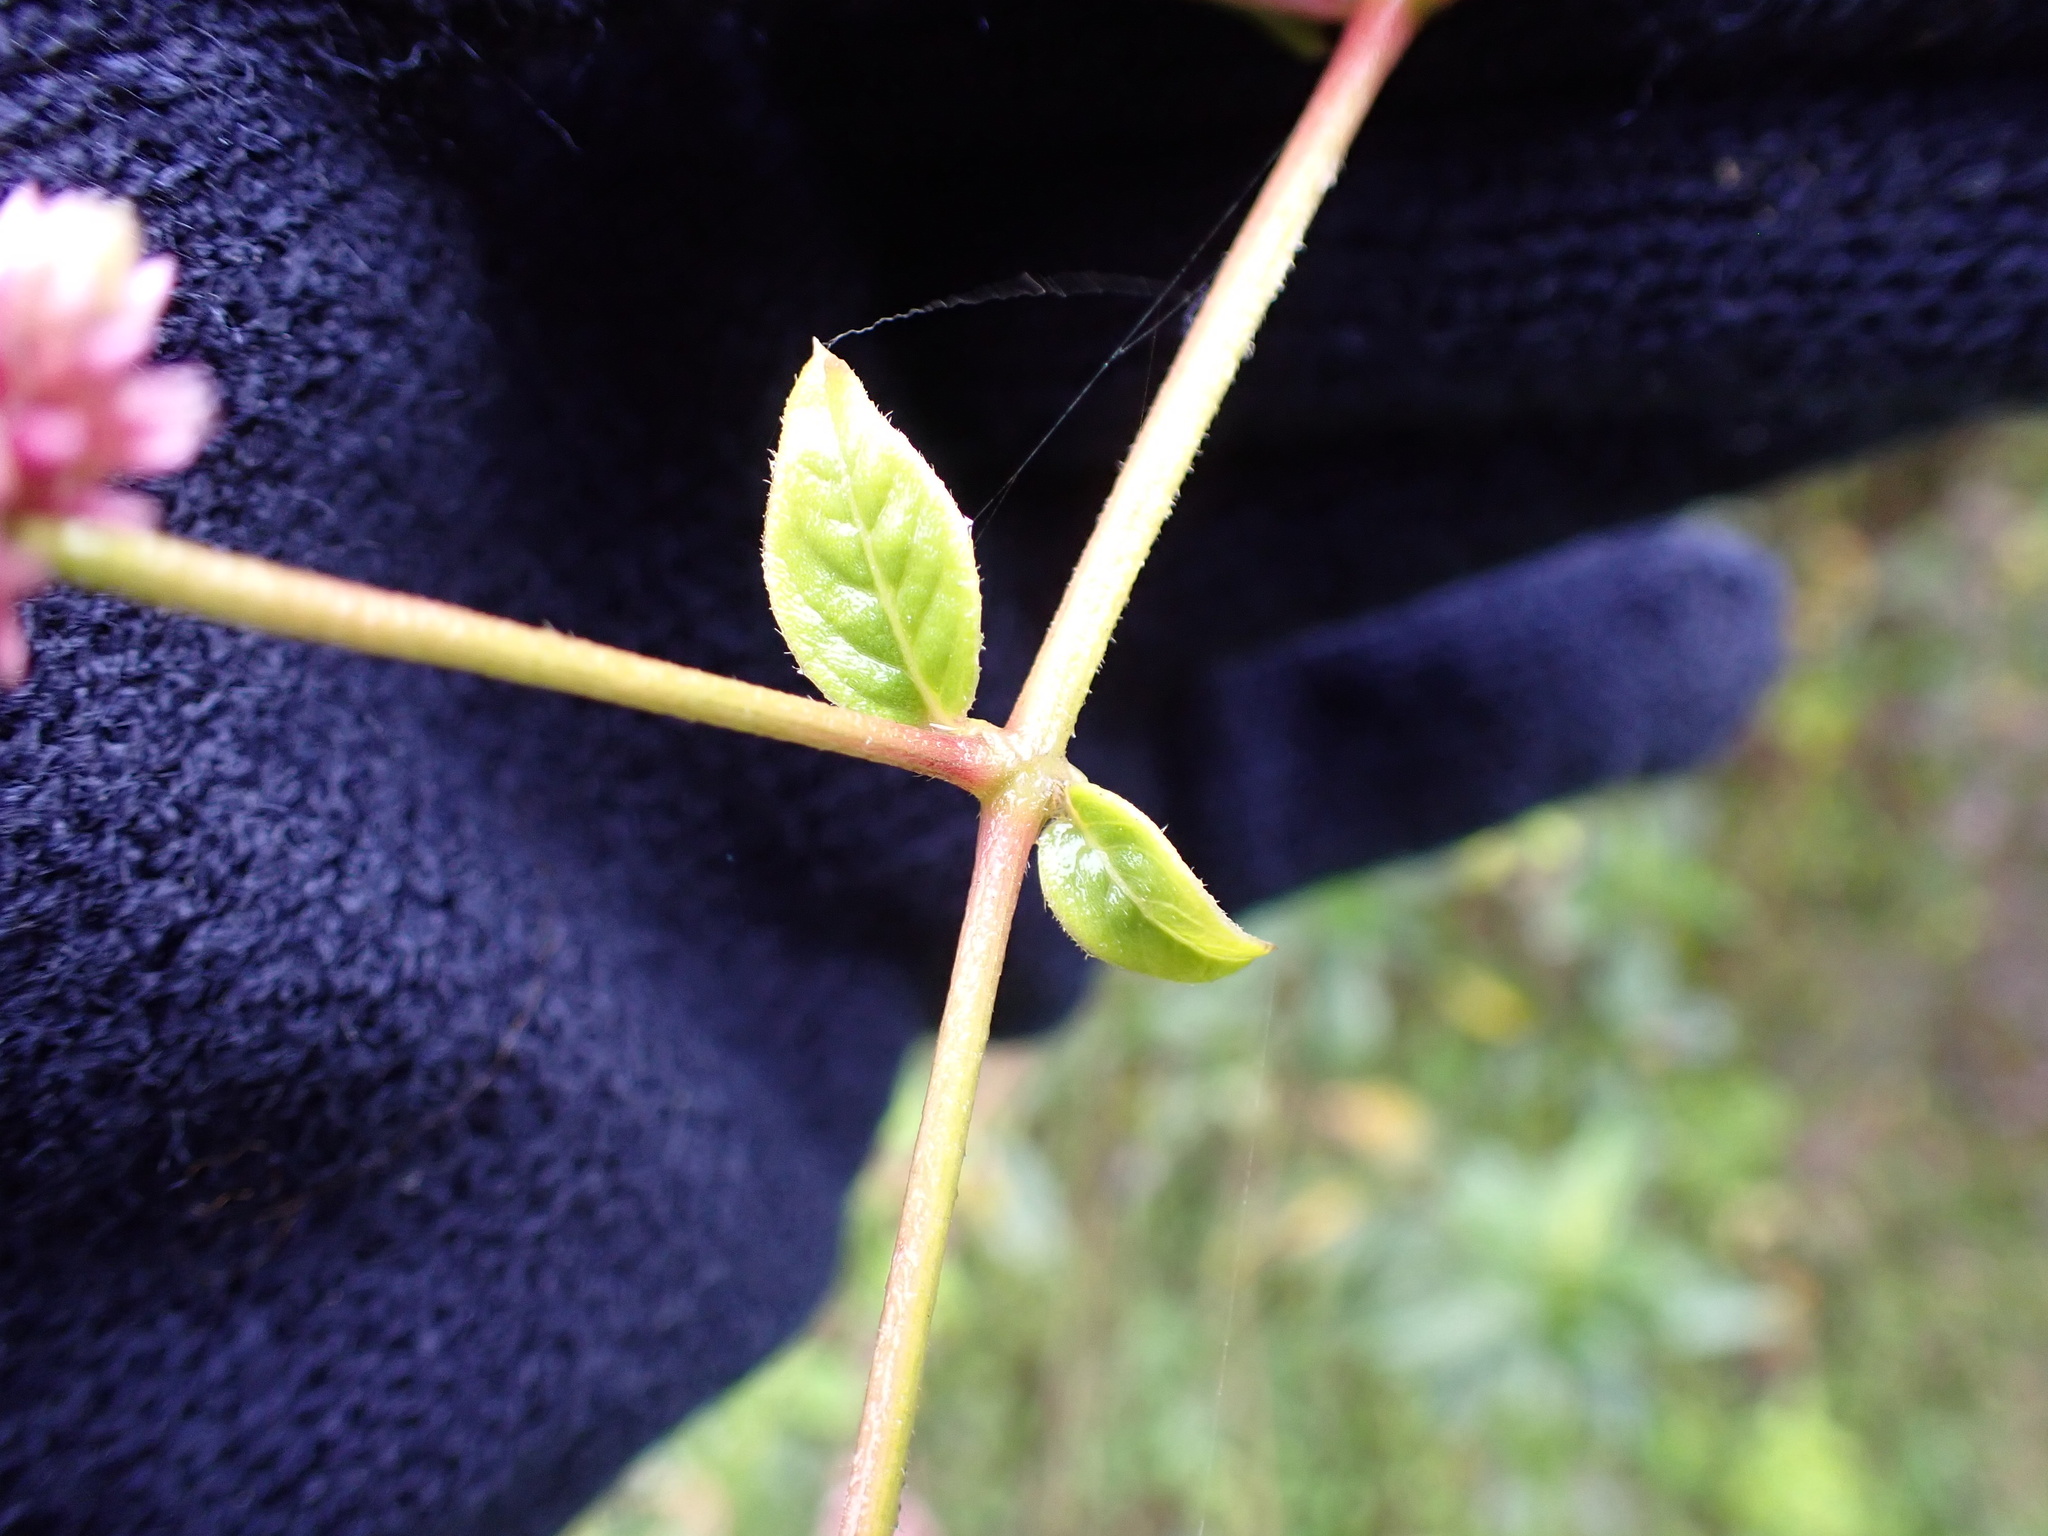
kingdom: Plantae
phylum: Tracheophyta
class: Magnoliopsida
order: Caryophyllales
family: Amaranthaceae
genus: Alternanthera
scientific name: Alternanthera porrigens
